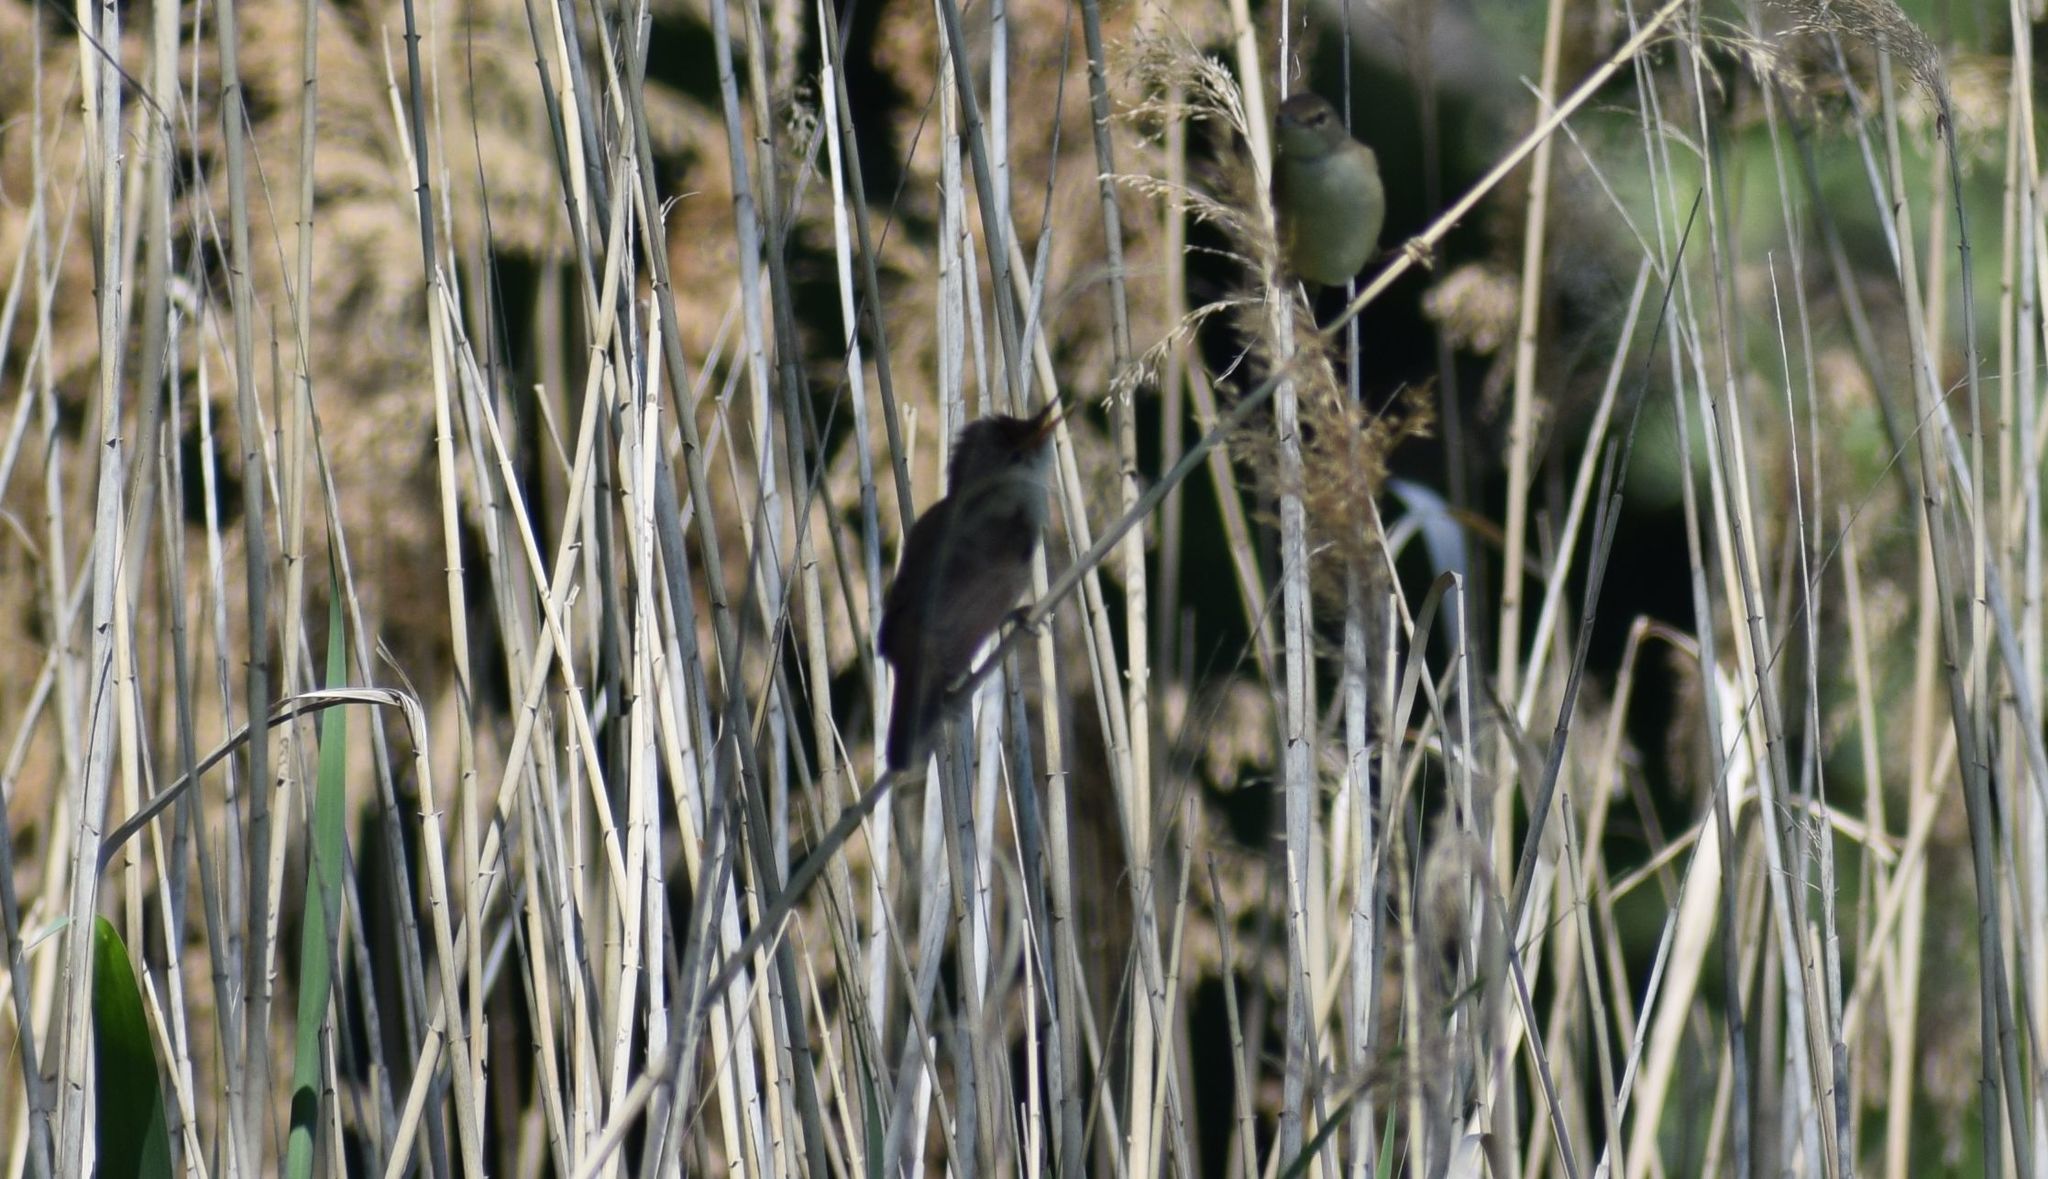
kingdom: Animalia
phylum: Chordata
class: Aves
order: Passeriformes
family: Acrocephalidae
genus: Acrocephalus
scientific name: Acrocephalus scirpaceus
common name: Eurasian reed warbler
